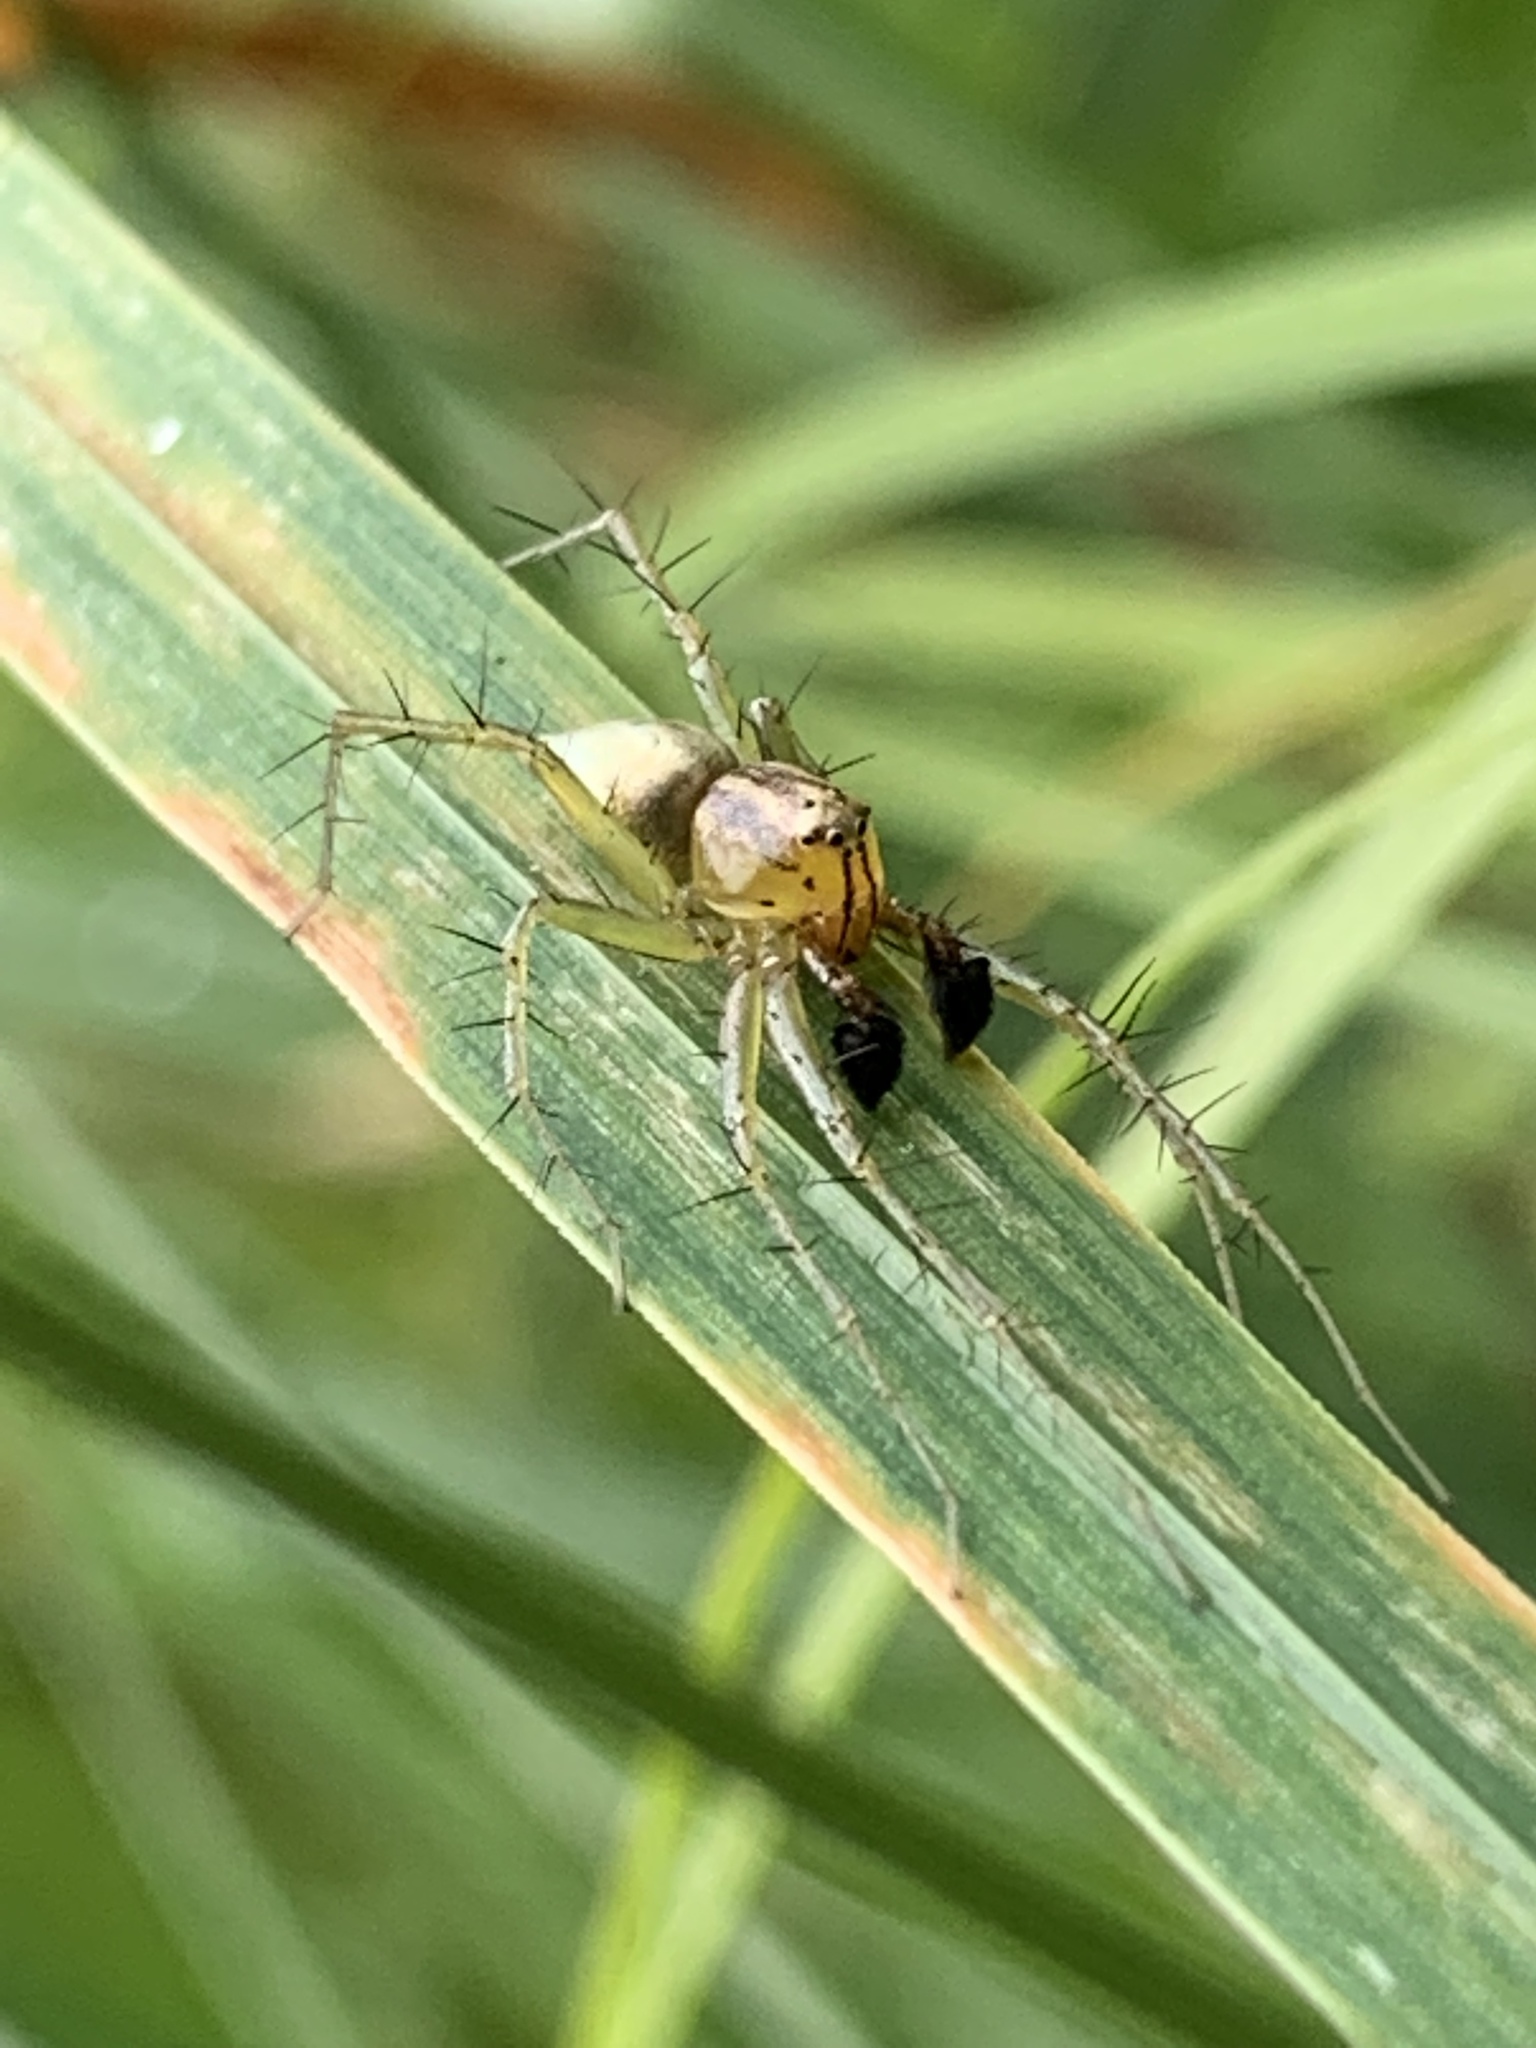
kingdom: Animalia
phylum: Arthropoda
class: Arachnida
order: Araneae
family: Oxyopidae
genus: Oxyopes
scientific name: Oxyopes salticus
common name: Lynx spiders
